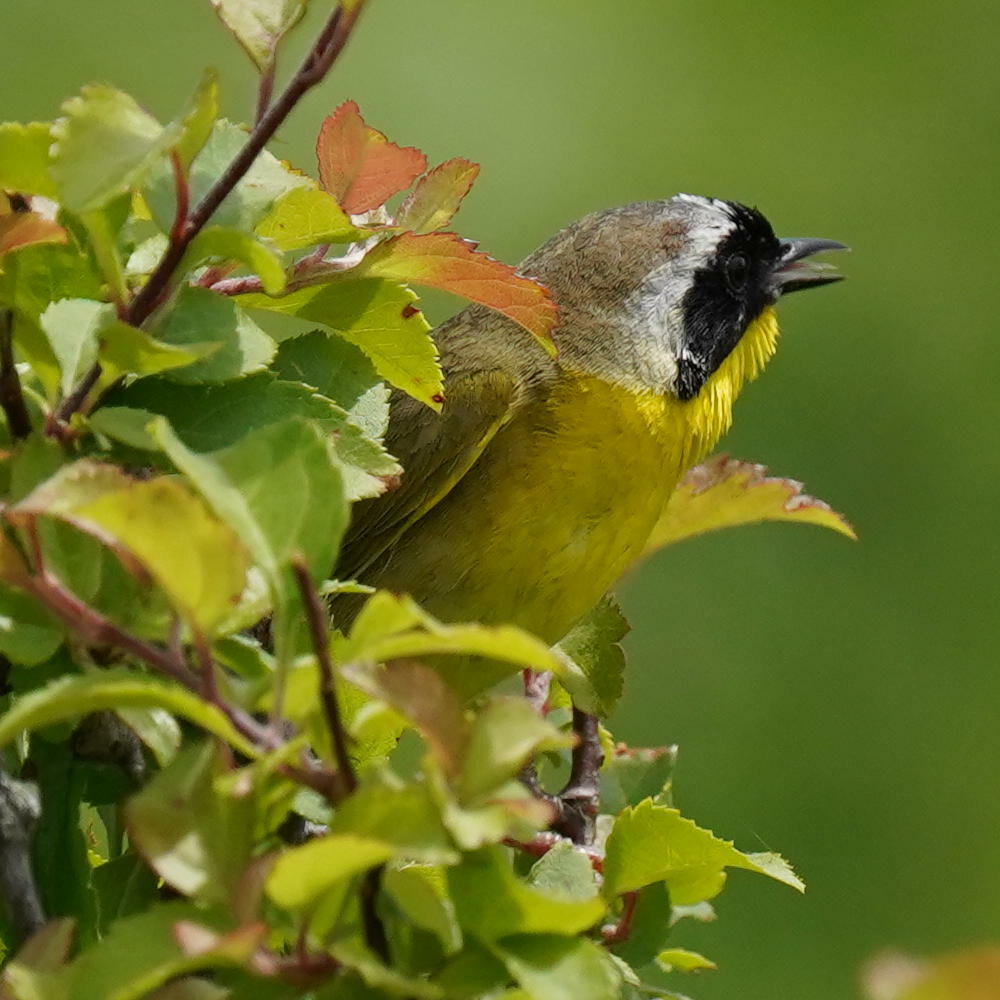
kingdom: Animalia
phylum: Chordata
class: Aves
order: Passeriformes
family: Parulidae
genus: Geothlypis
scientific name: Geothlypis trichas
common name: Common yellowthroat
